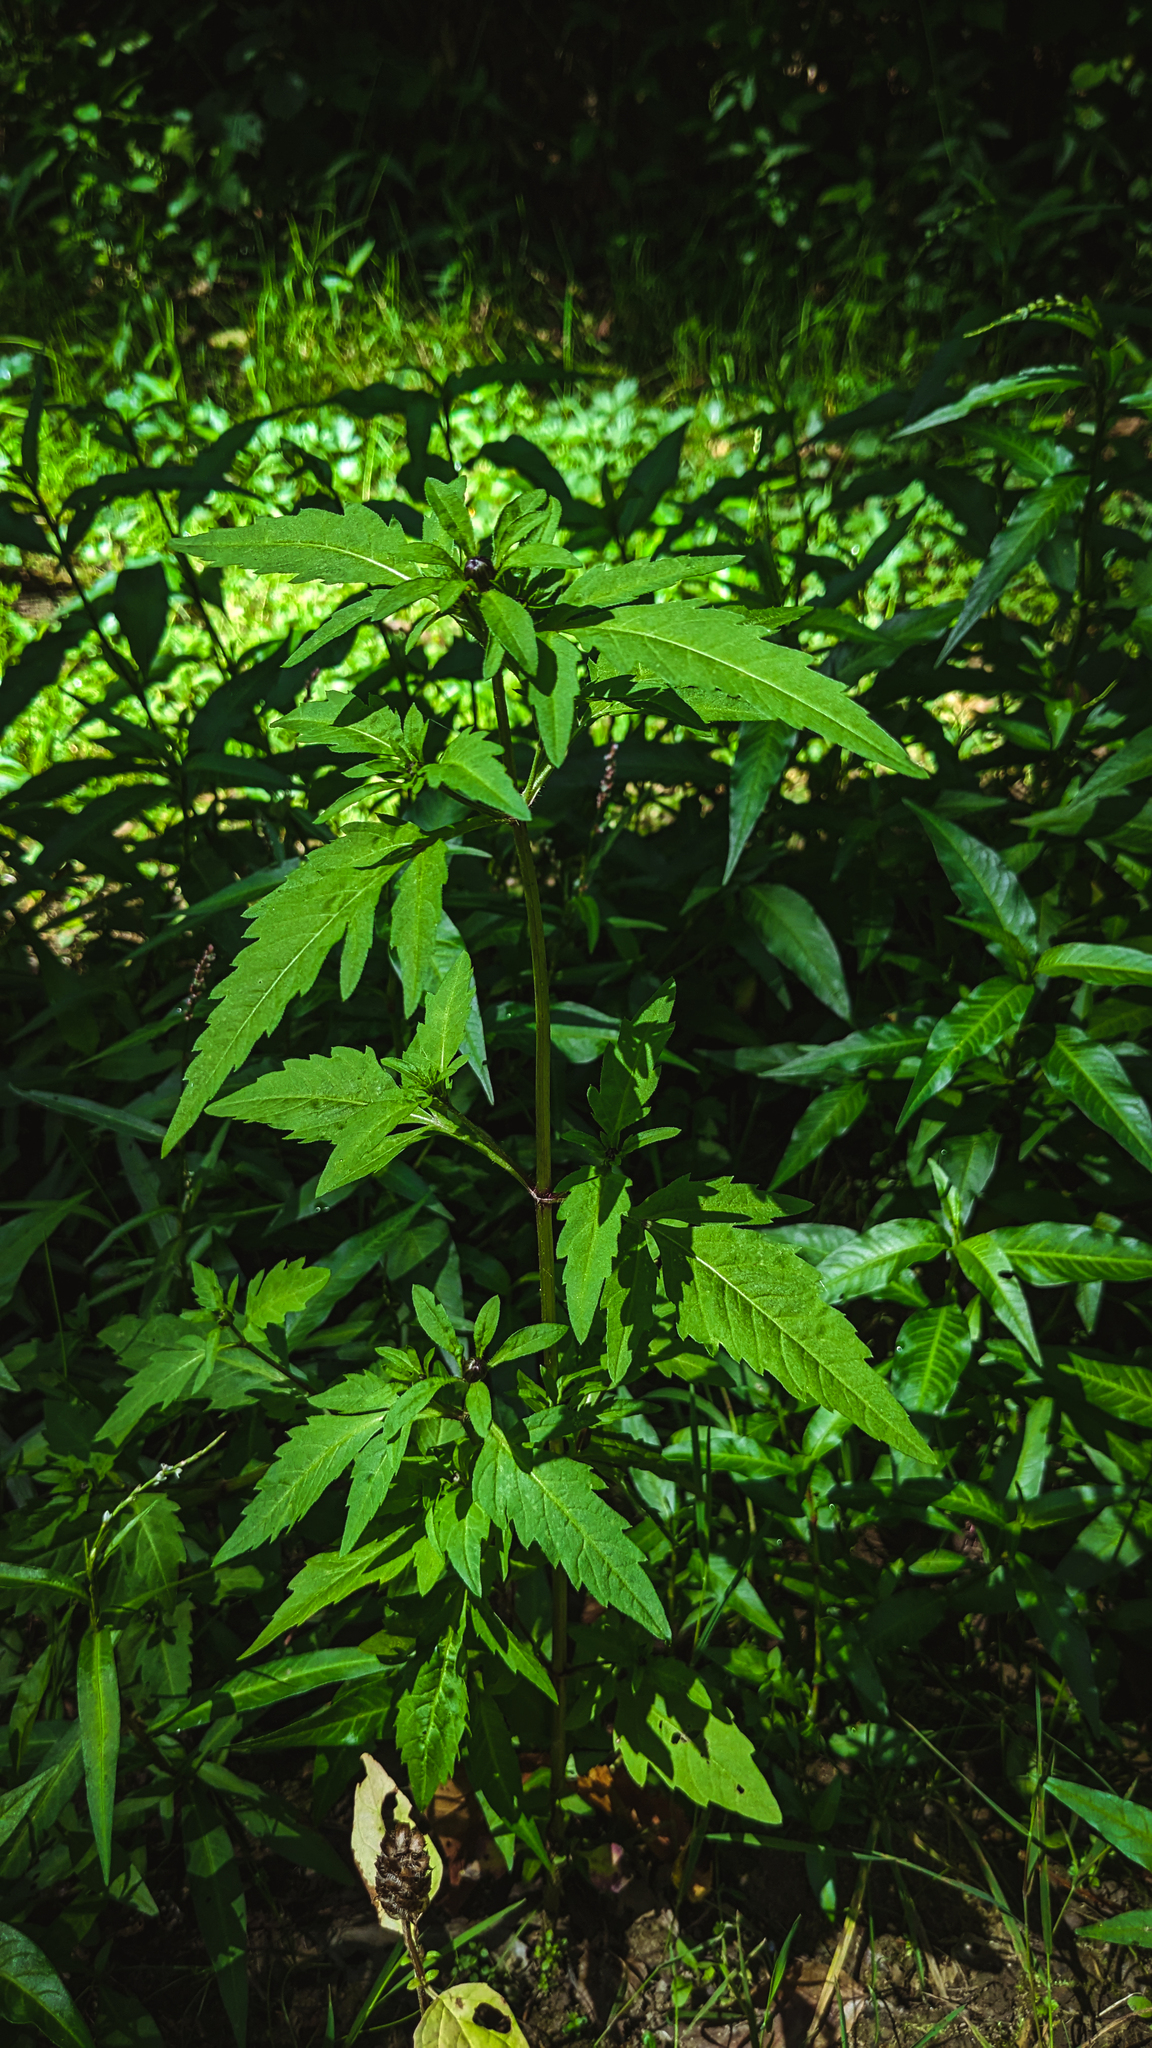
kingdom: Plantae
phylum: Tracheophyta
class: Magnoliopsida
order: Asterales
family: Asteraceae
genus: Bidens
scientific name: Bidens tripartita
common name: Trifid bur-marigold
